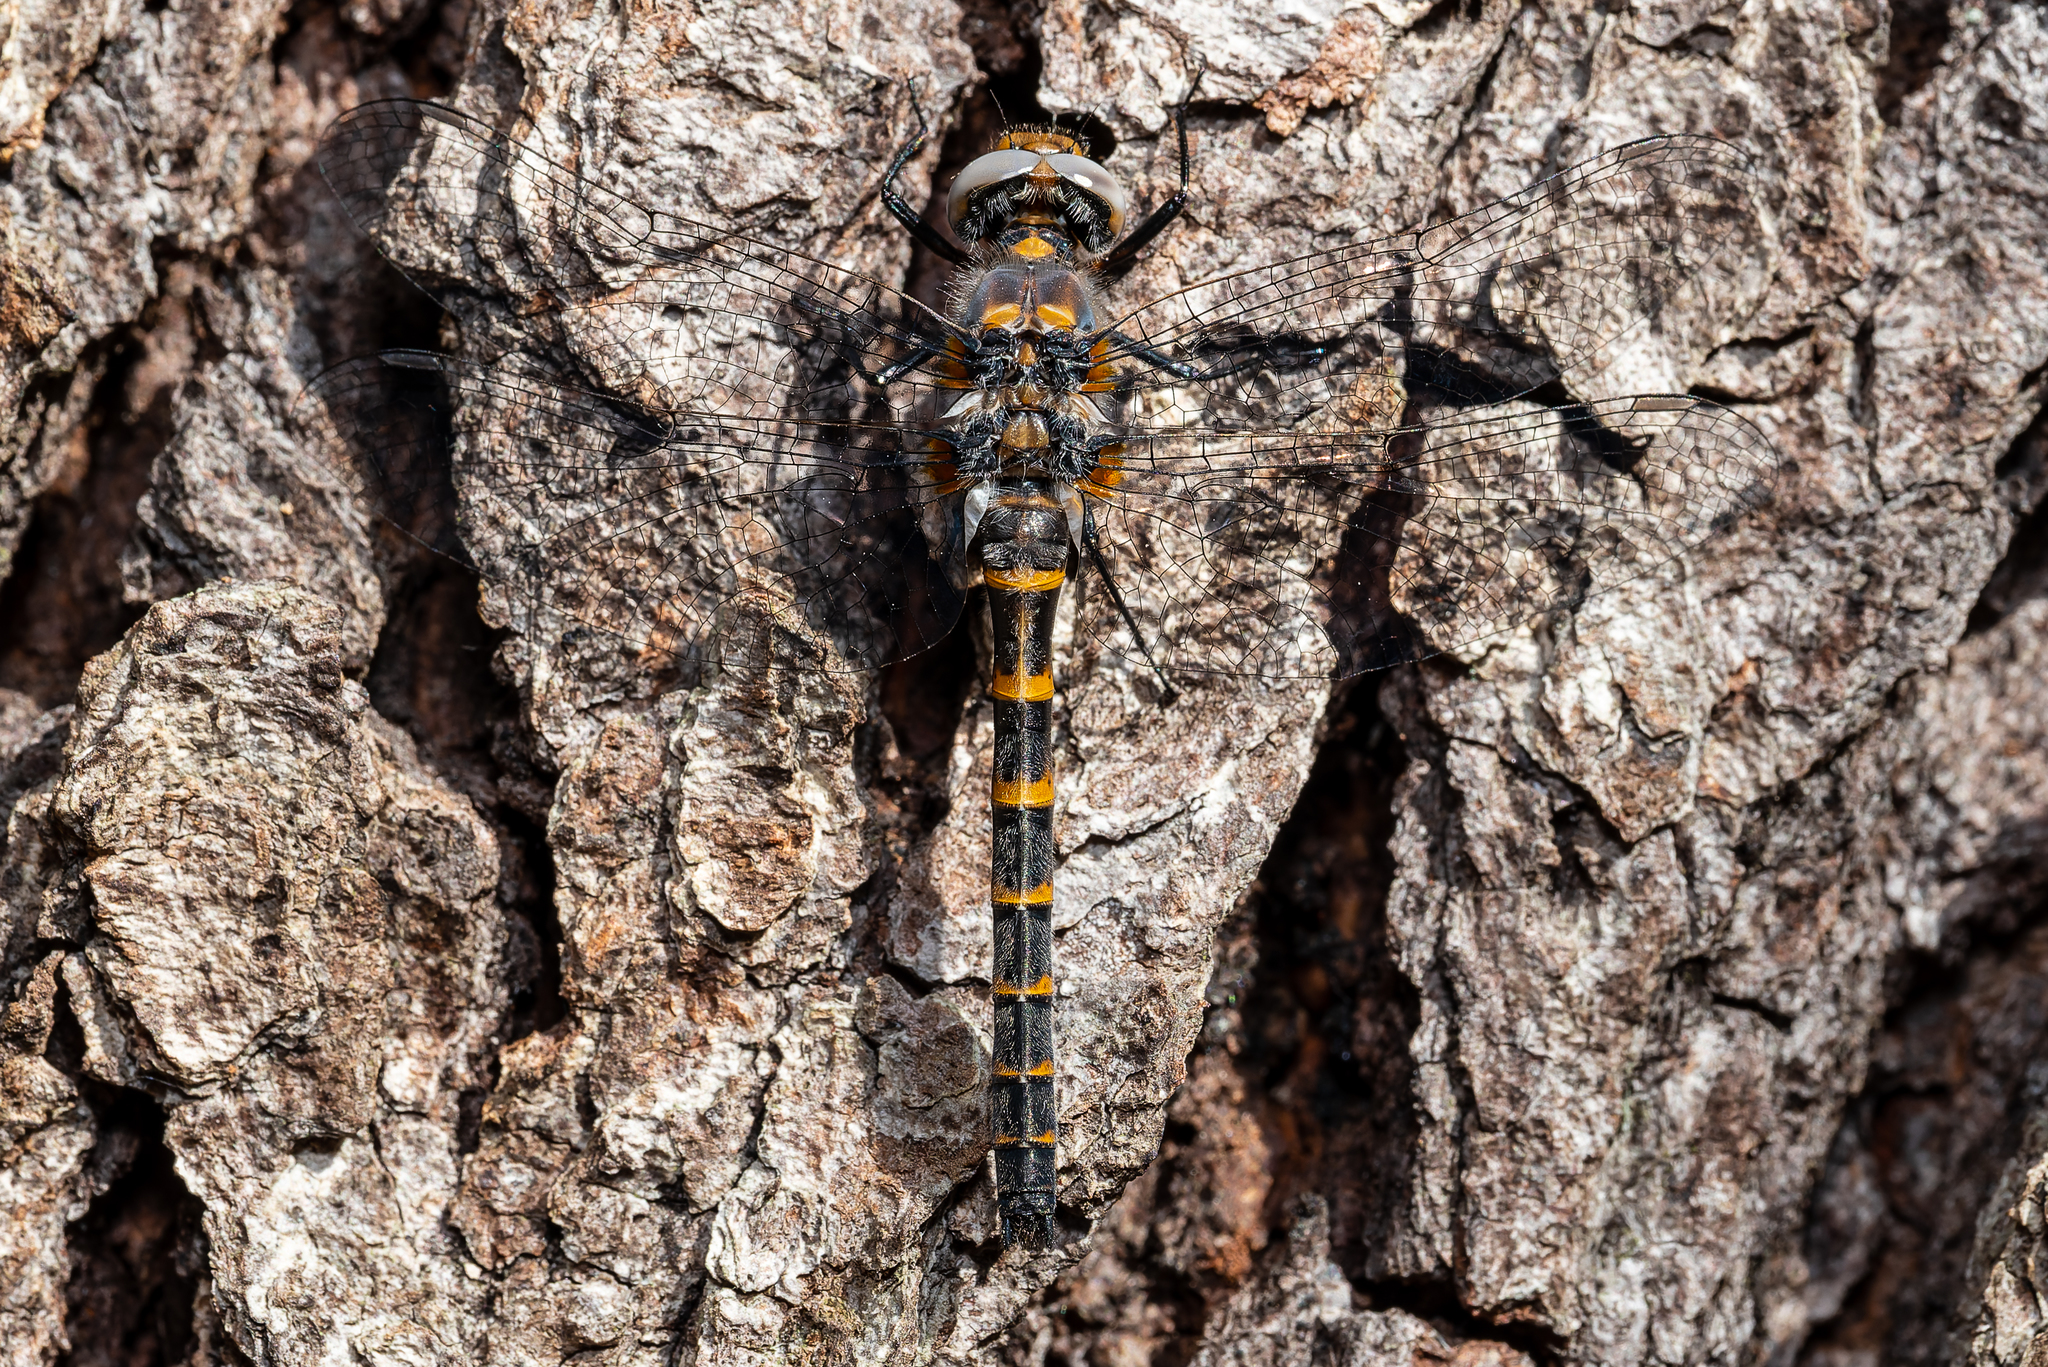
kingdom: Animalia
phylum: Arthropoda
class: Insecta
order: Odonata
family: Corduliidae
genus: Williamsonia
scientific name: Williamsonia lintneri
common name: Ringed boghaunter
